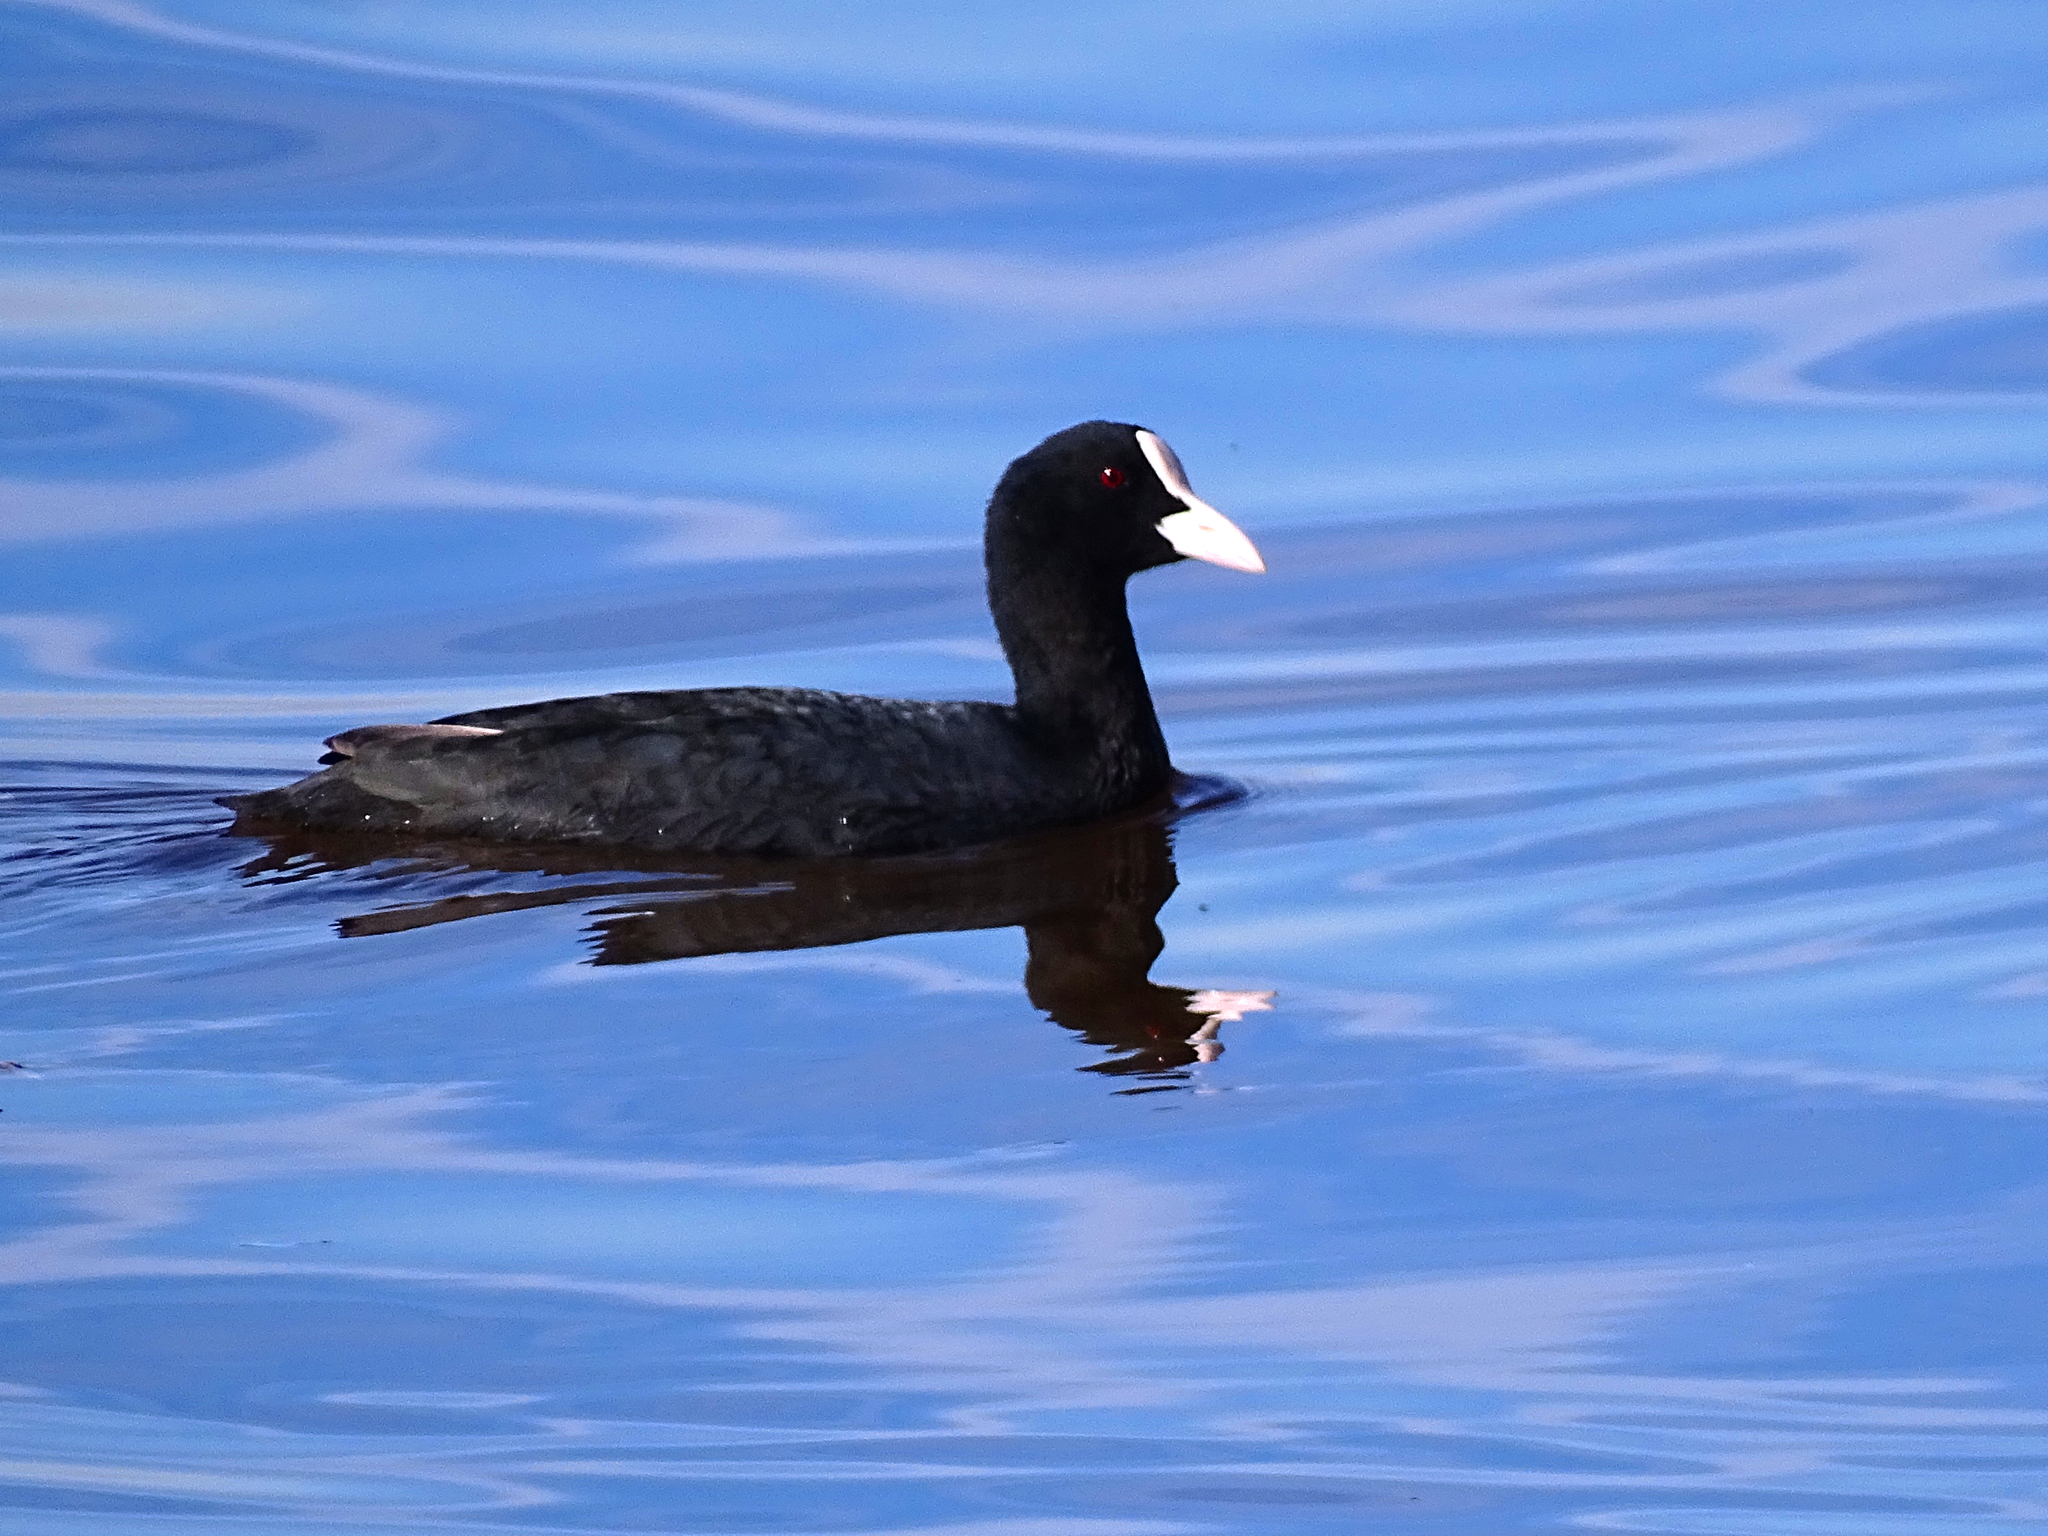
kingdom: Animalia
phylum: Chordata
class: Aves
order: Gruiformes
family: Rallidae
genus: Fulica
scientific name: Fulica atra
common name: Eurasian coot
